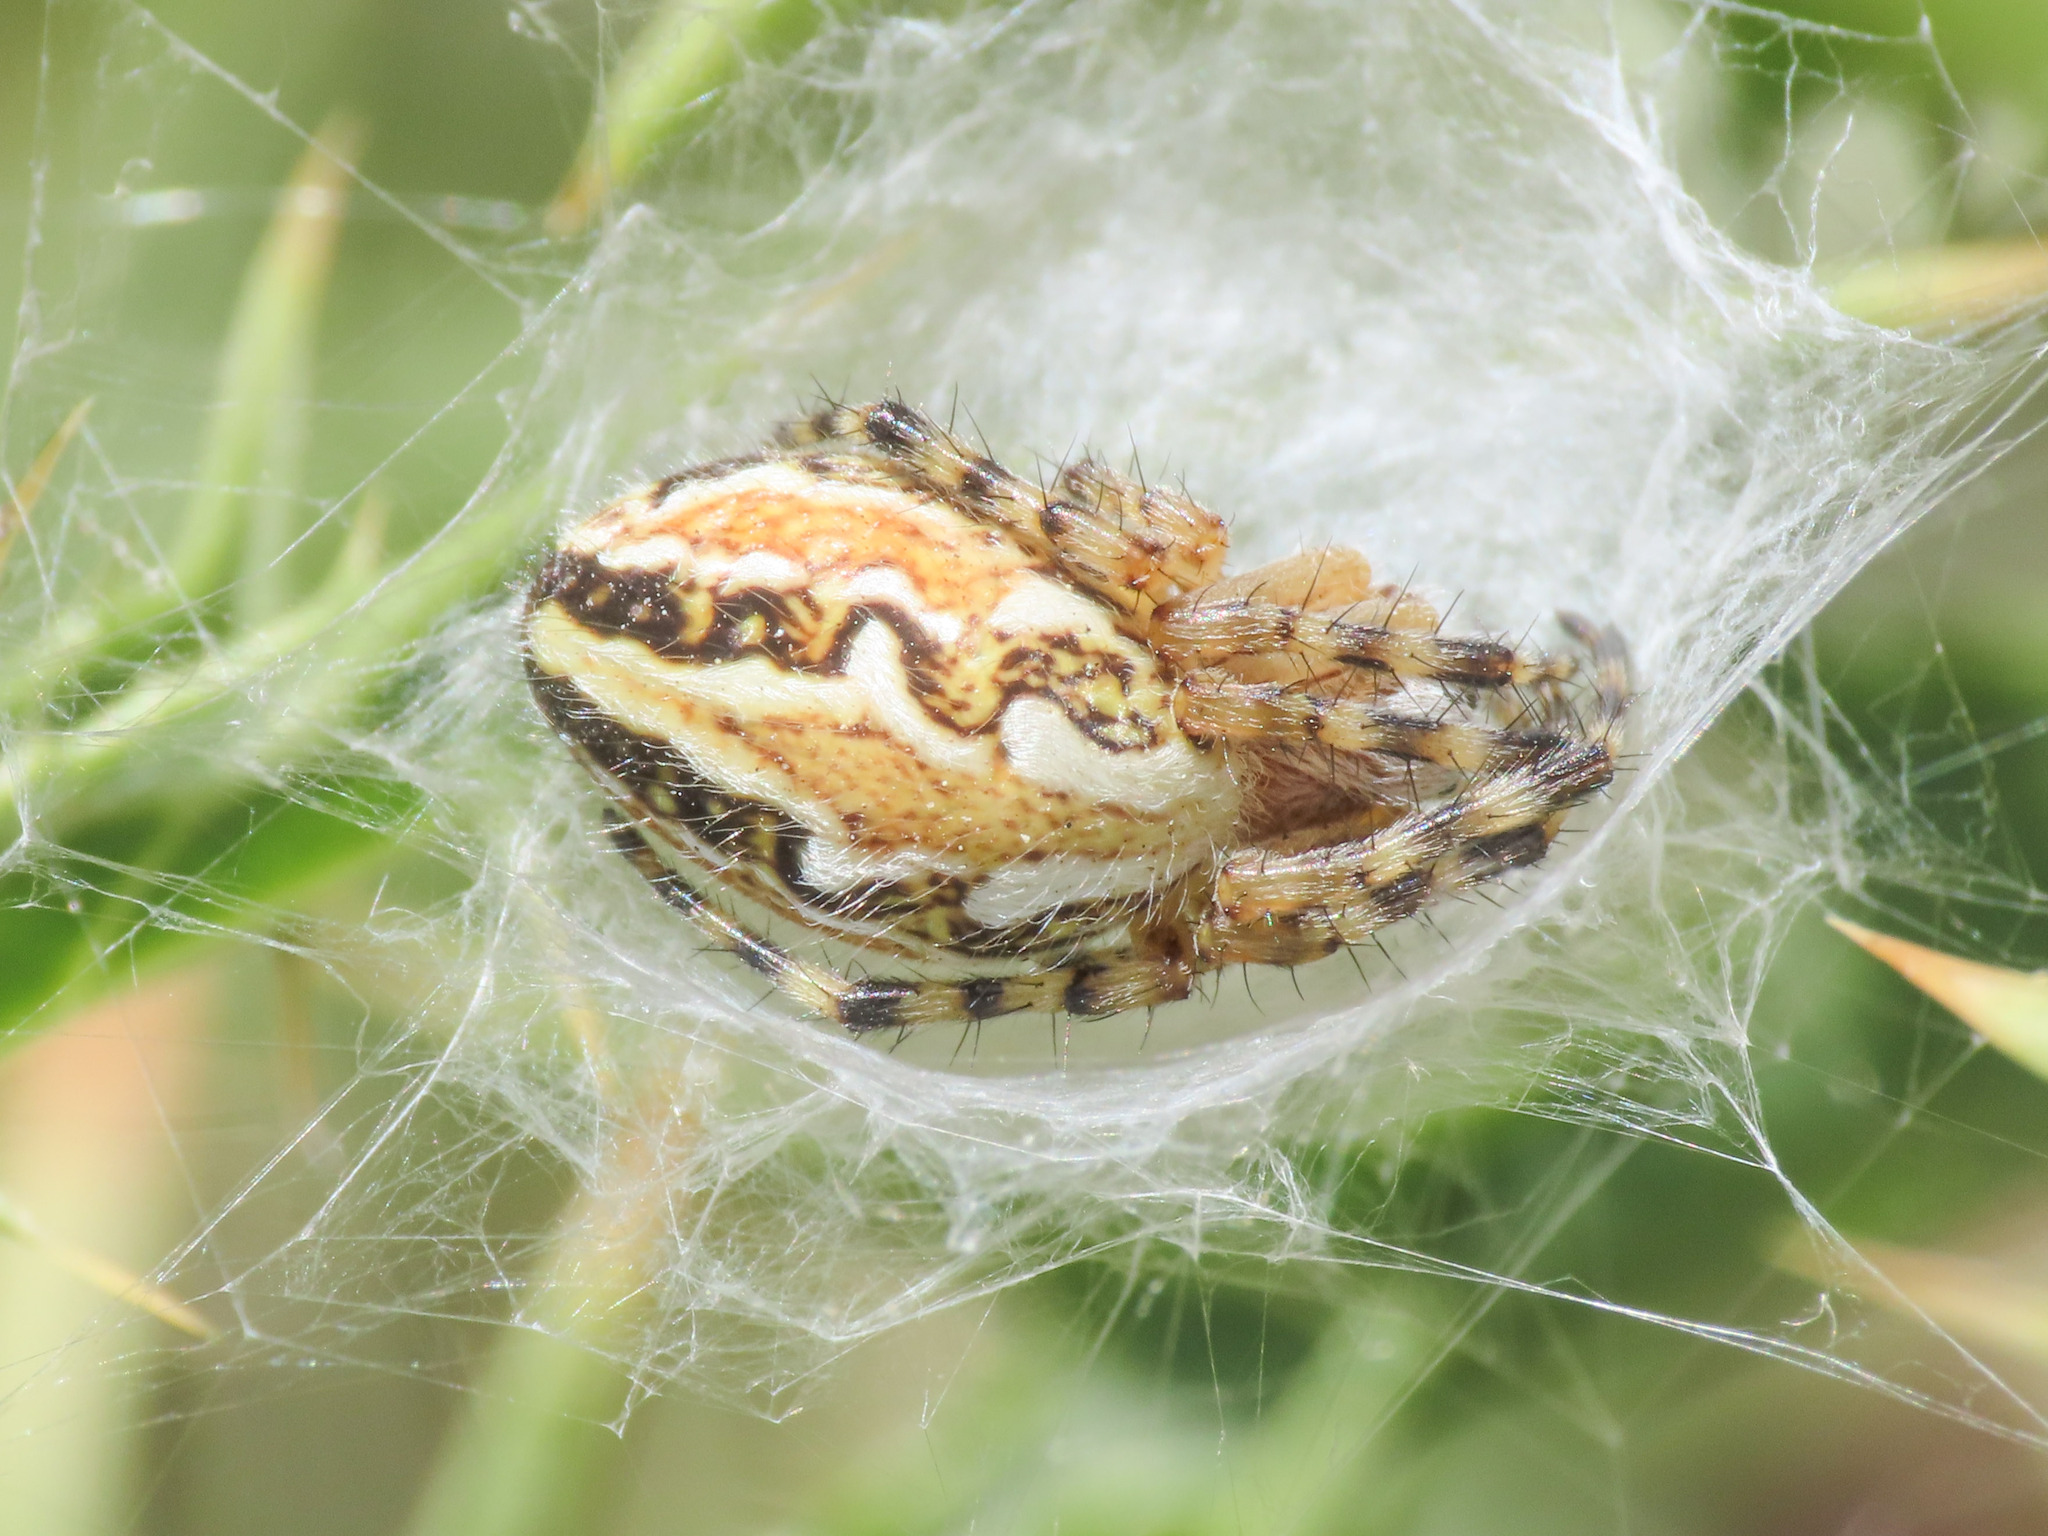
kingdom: Animalia
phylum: Arthropoda
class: Arachnida
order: Araneae
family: Araneidae
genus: Aculepeira
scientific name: Aculepeira armida
